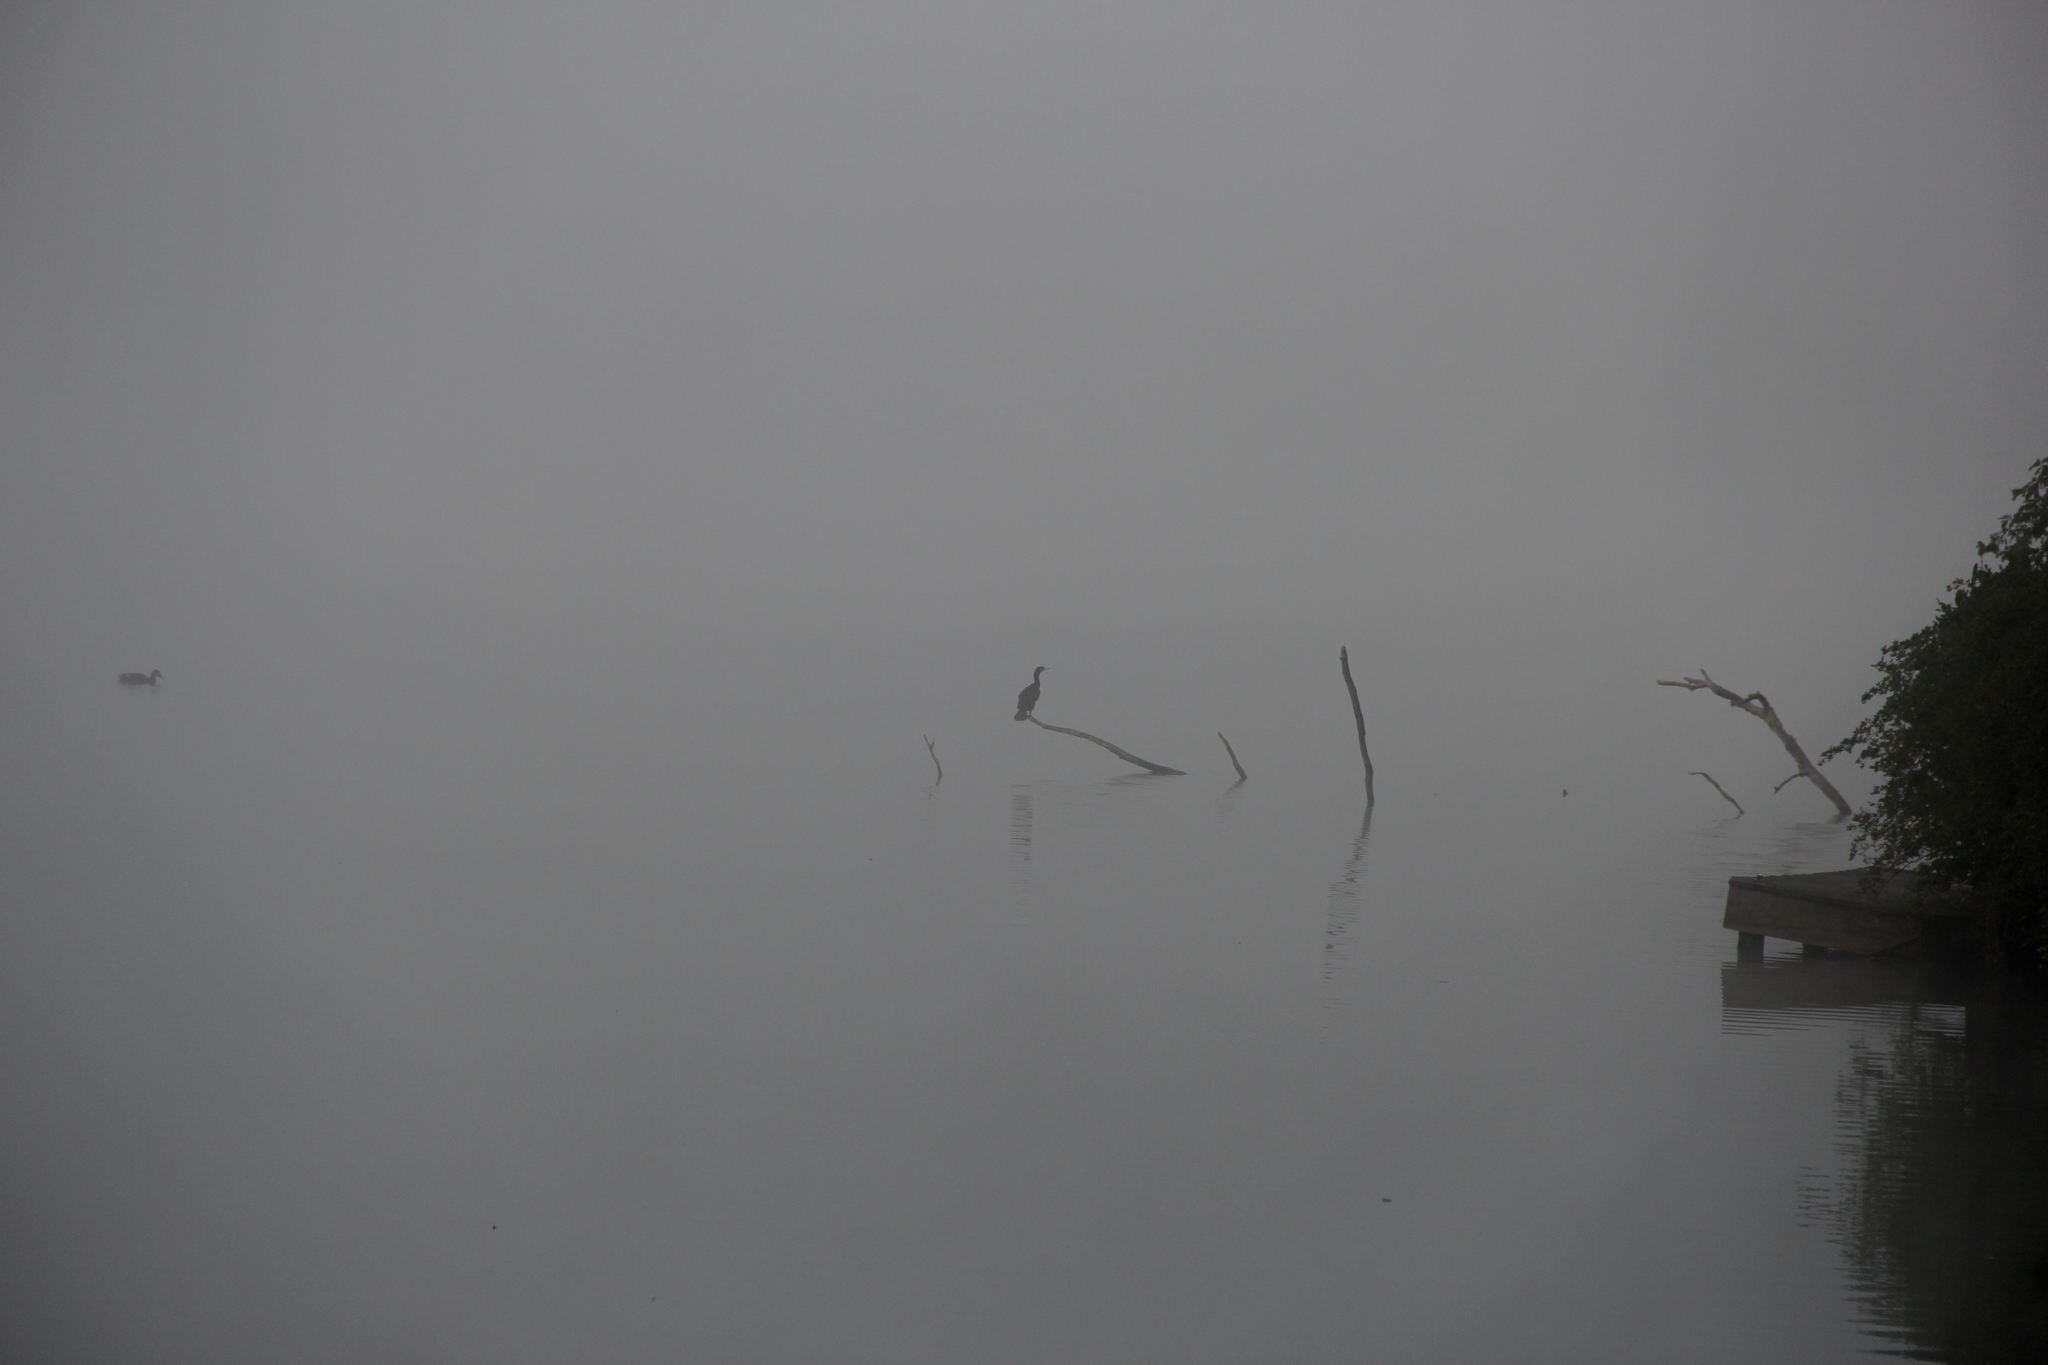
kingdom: Animalia
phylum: Chordata
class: Aves
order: Suliformes
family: Phalacrocoracidae
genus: Phalacrocorax
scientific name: Phalacrocorax auritus
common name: Double-crested cormorant
